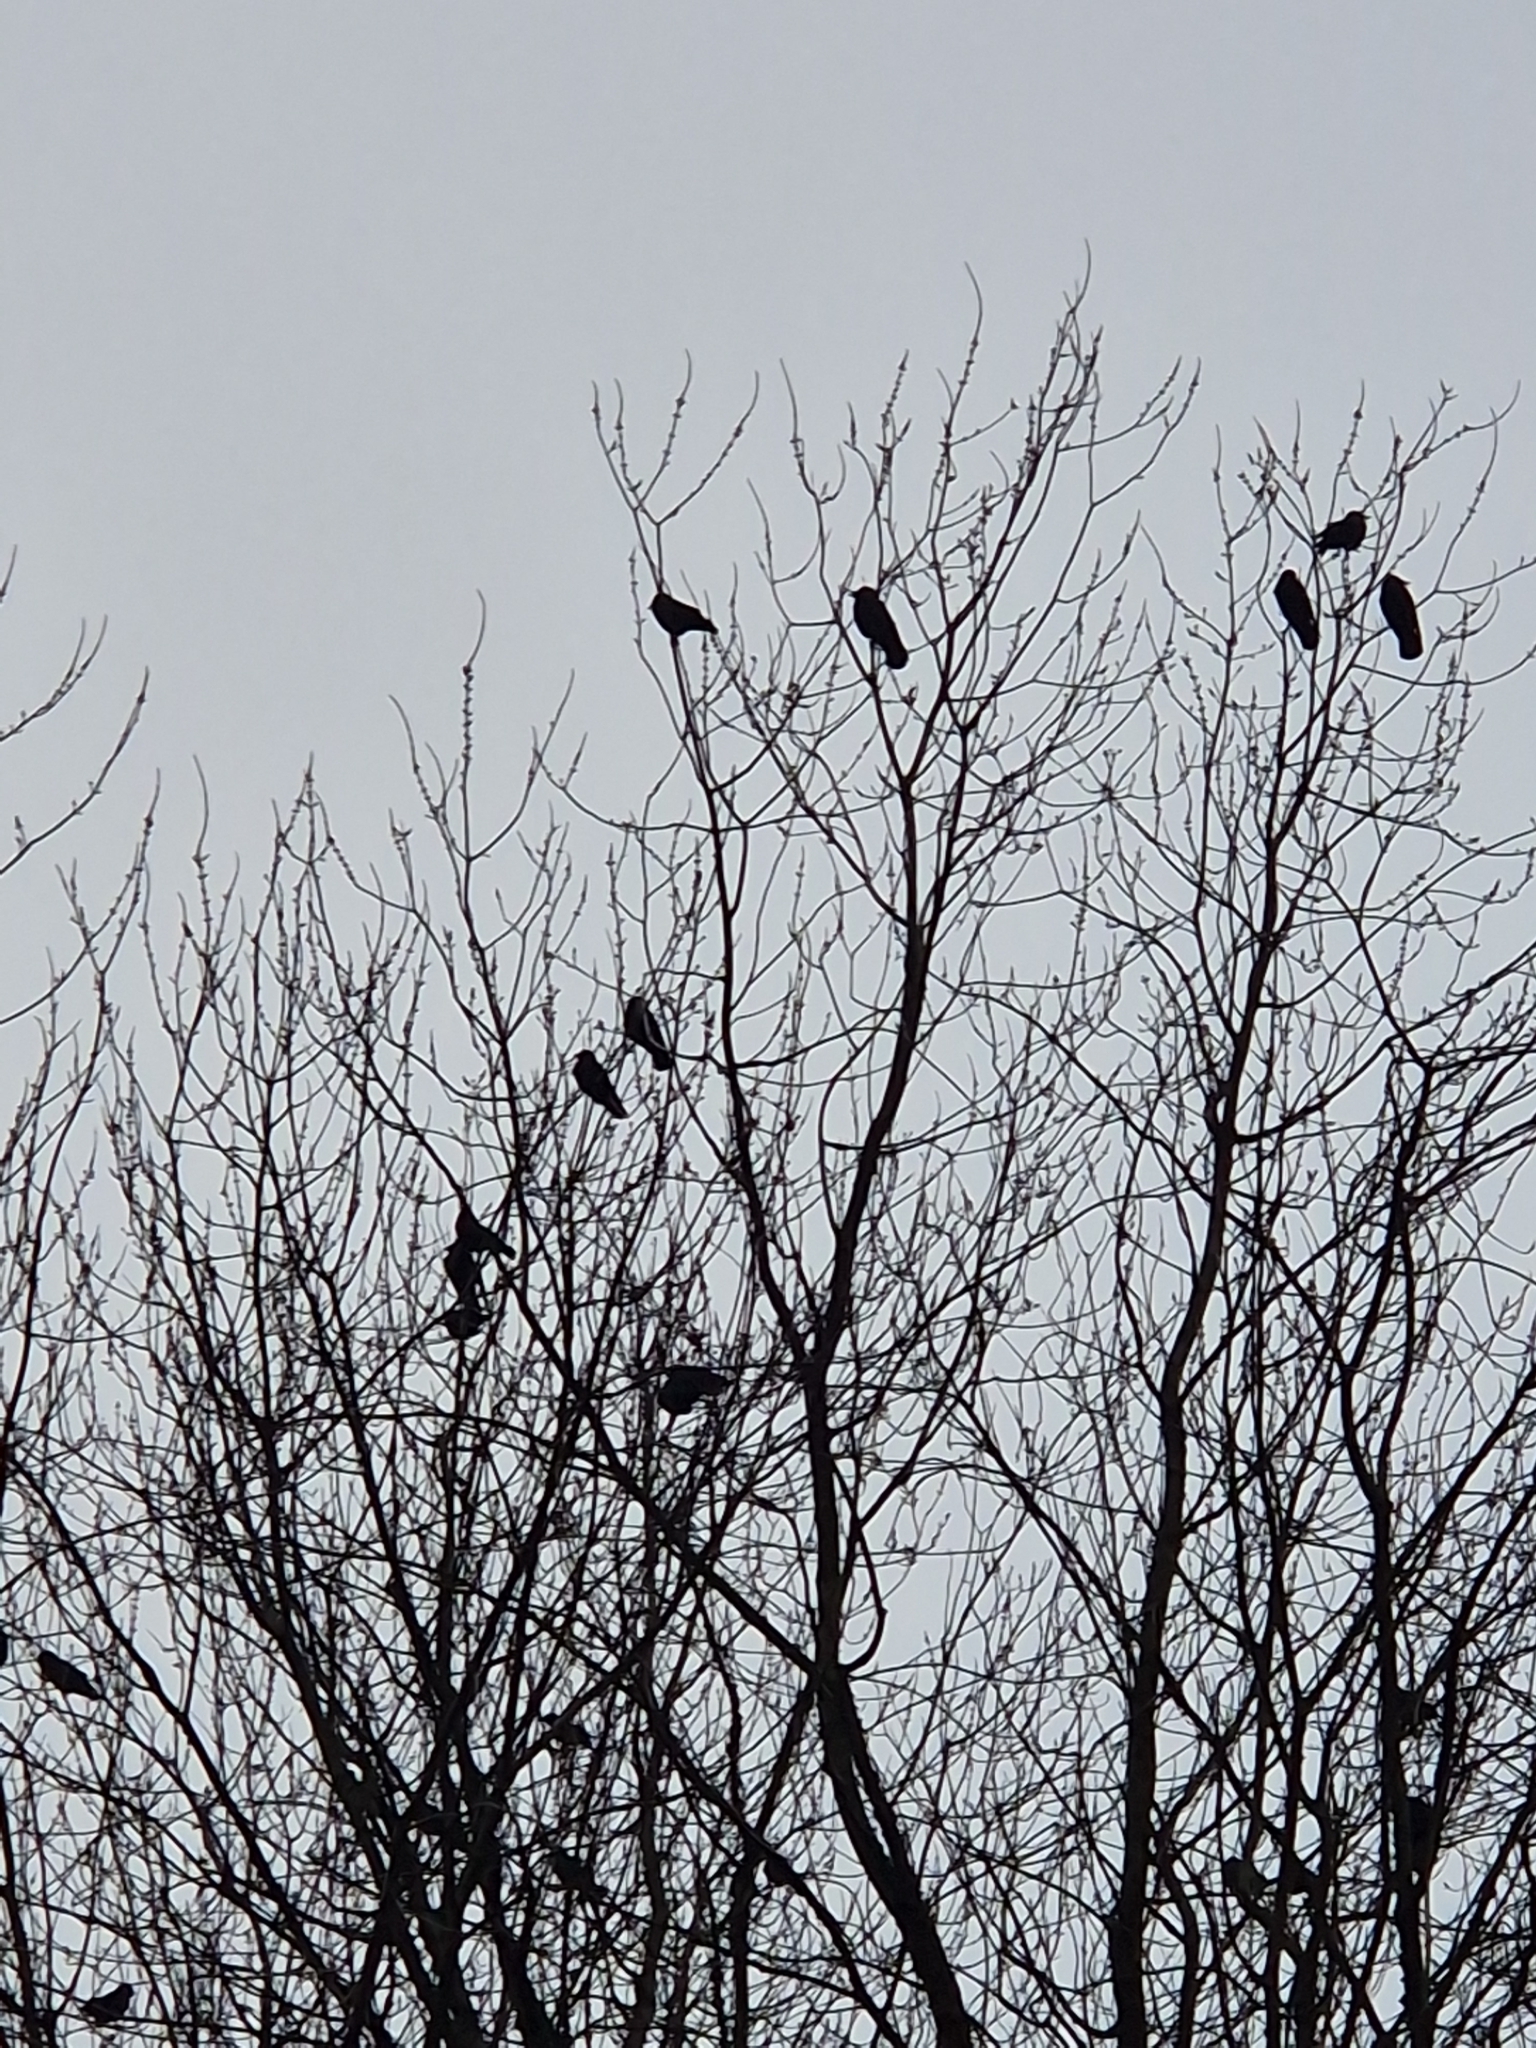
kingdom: Animalia
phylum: Chordata
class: Aves
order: Passeriformes
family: Corvidae
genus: Coloeus
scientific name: Coloeus monedula
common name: Western jackdaw
